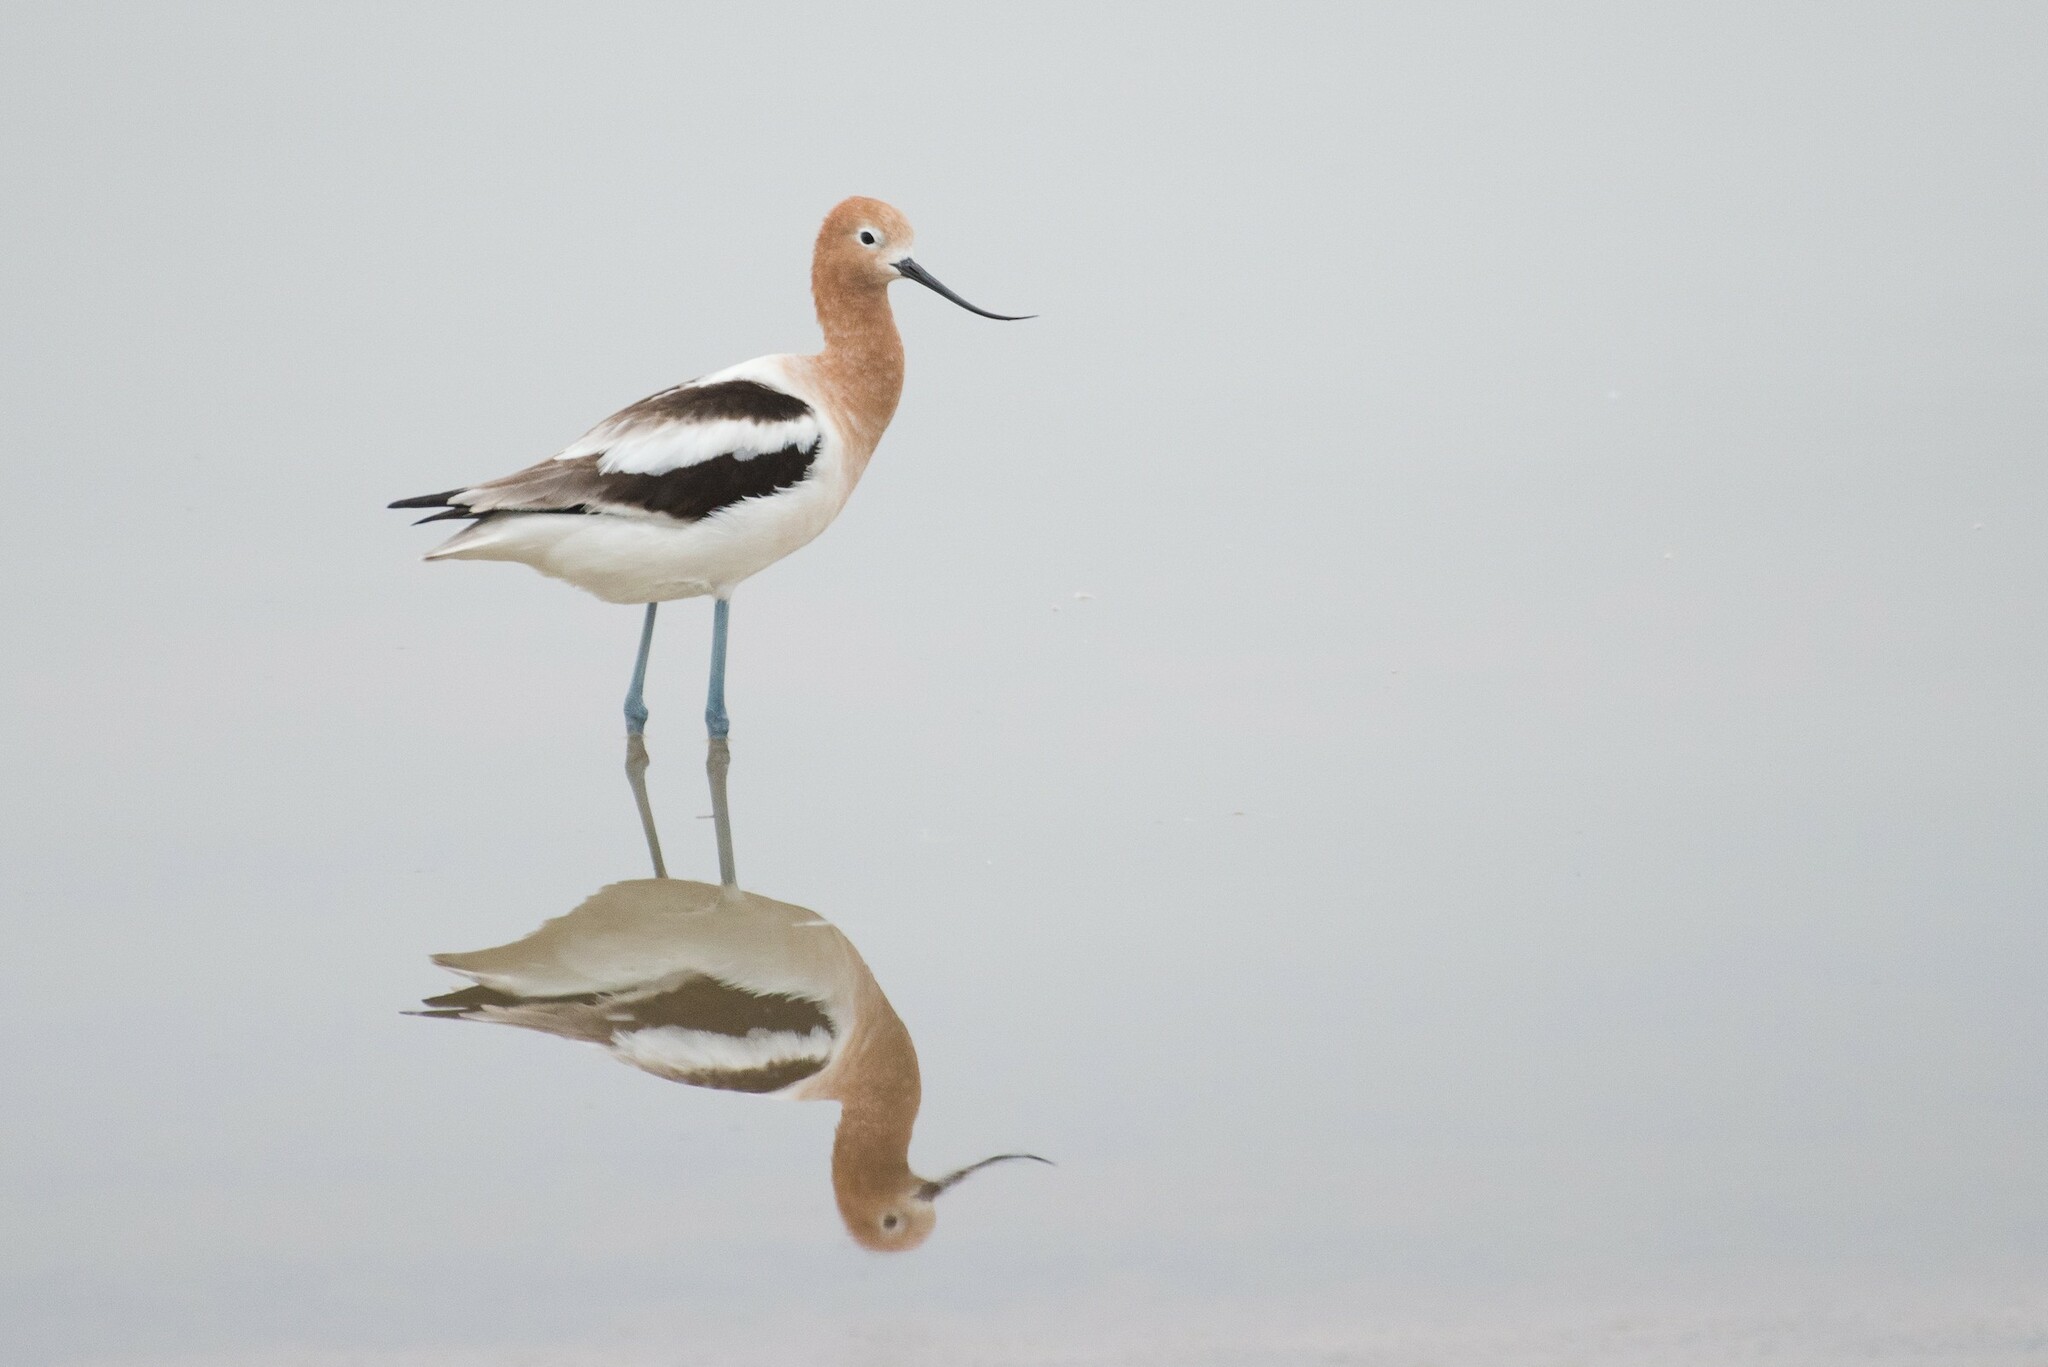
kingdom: Animalia
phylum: Chordata
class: Aves
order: Charadriiformes
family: Recurvirostridae
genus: Recurvirostra
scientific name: Recurvirostra americana
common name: American avocet
